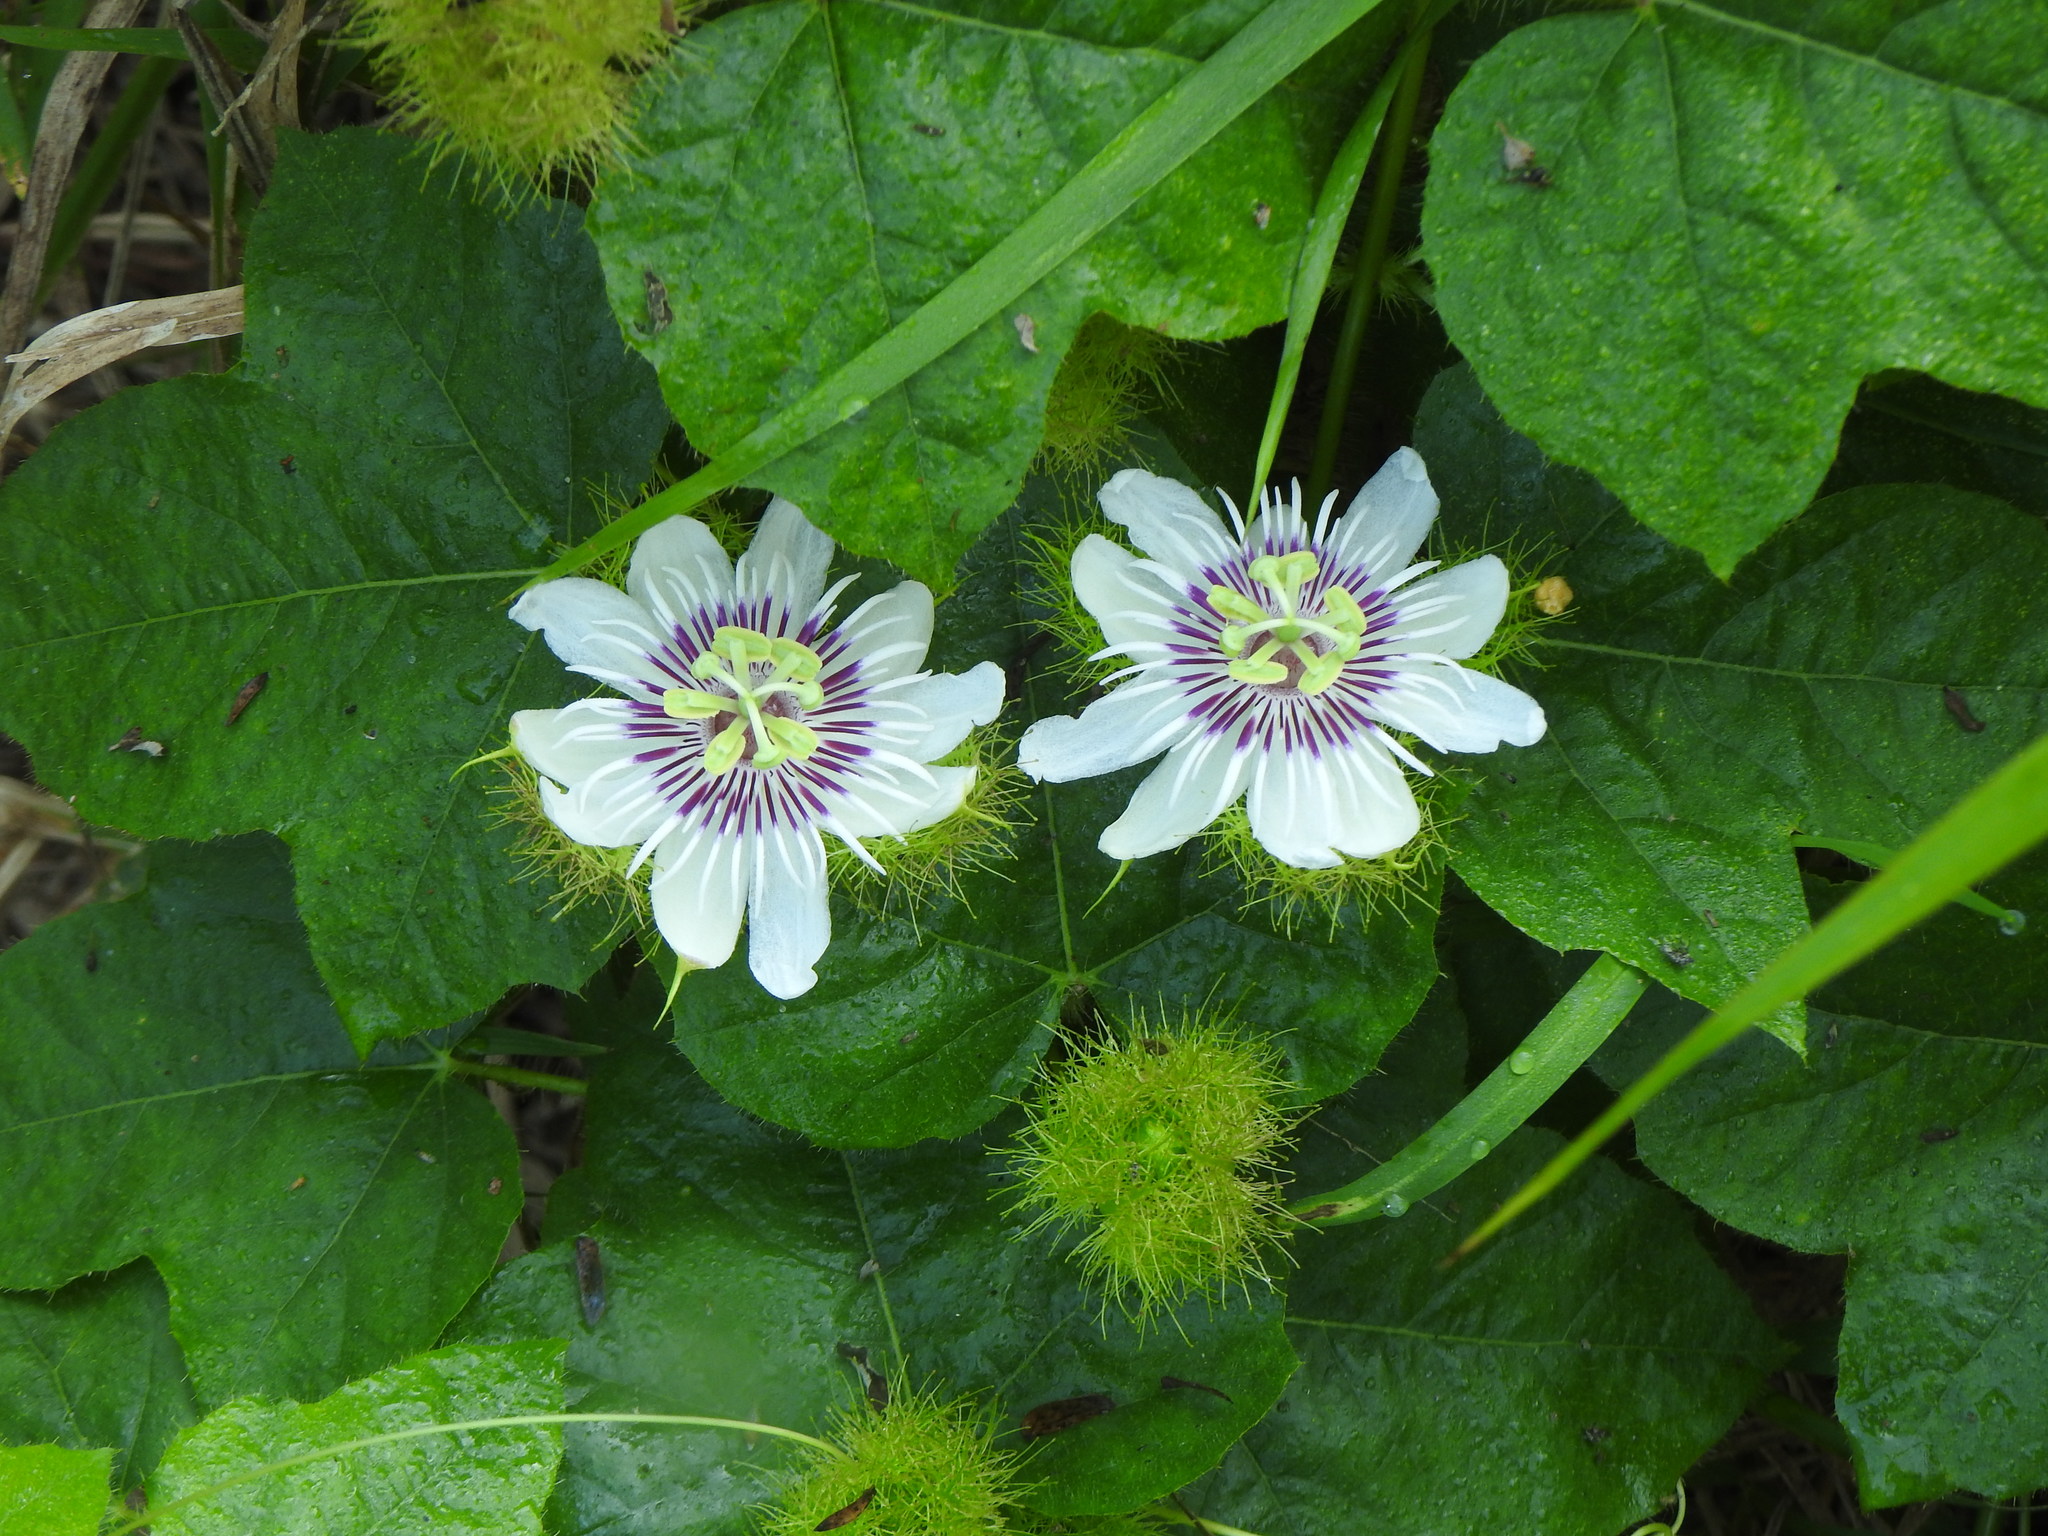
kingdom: Plantae
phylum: Tracheophyta
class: Magnoliopsida
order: Malpighiales
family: Passifloraceae
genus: Passiflora
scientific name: Passiflora vesicaria
